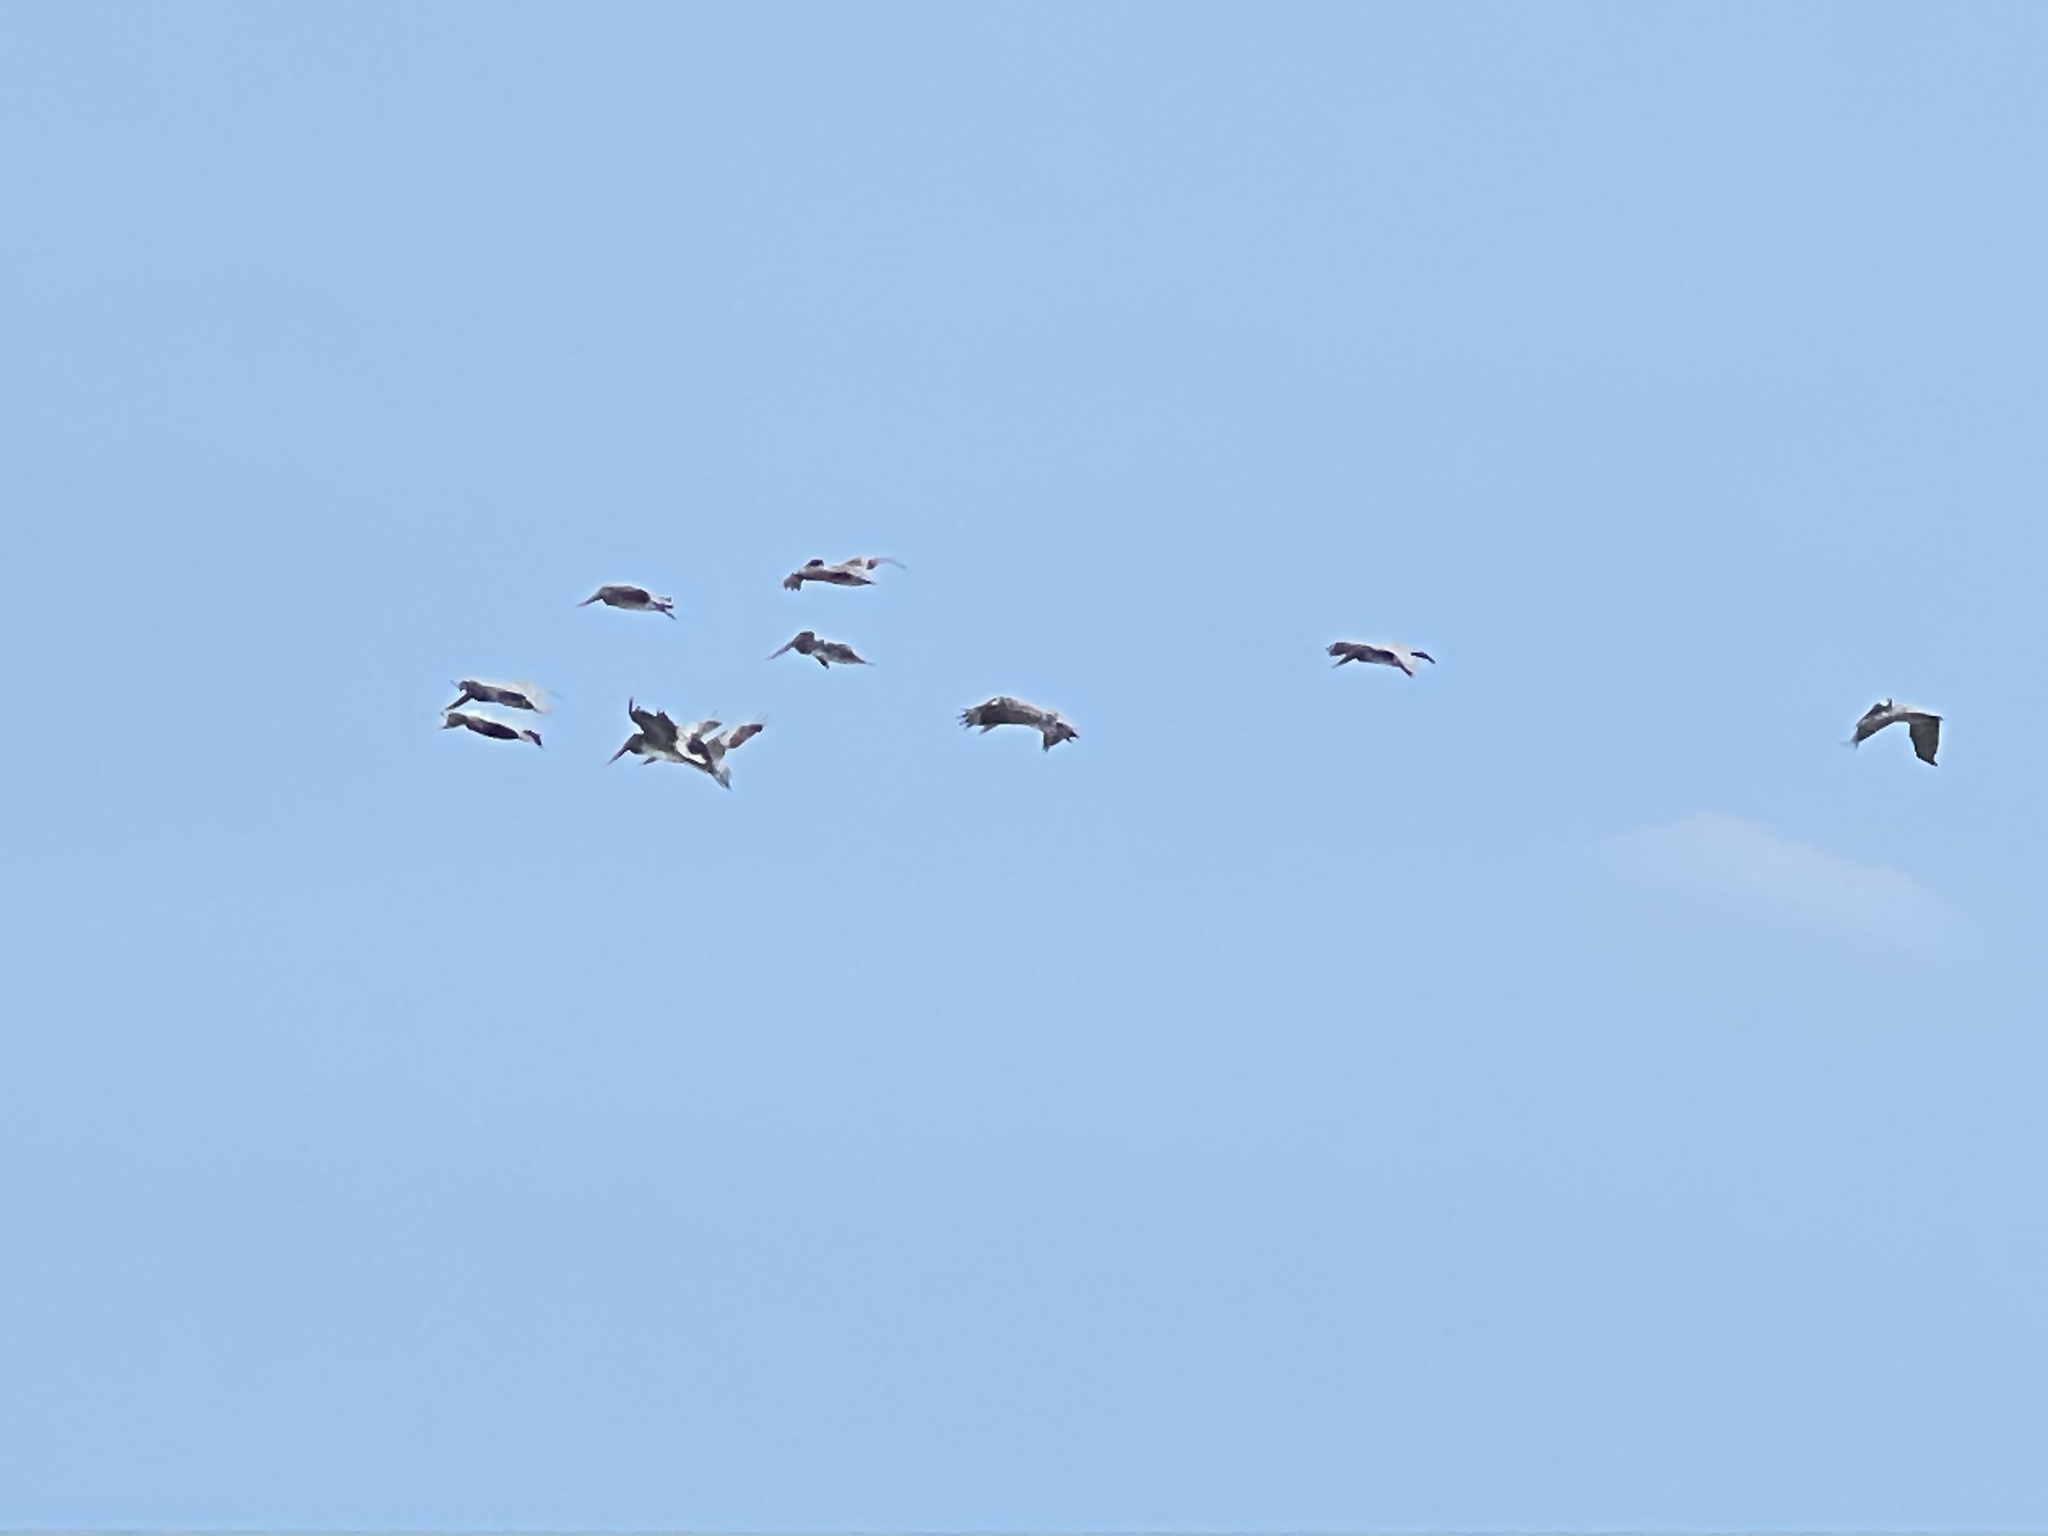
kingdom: Animalia
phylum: Chordata
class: Aves
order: Pelecaniformes
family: Pelecanidae
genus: Pelecanus
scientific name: Pelecanus occidentalis
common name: Brown pelican
